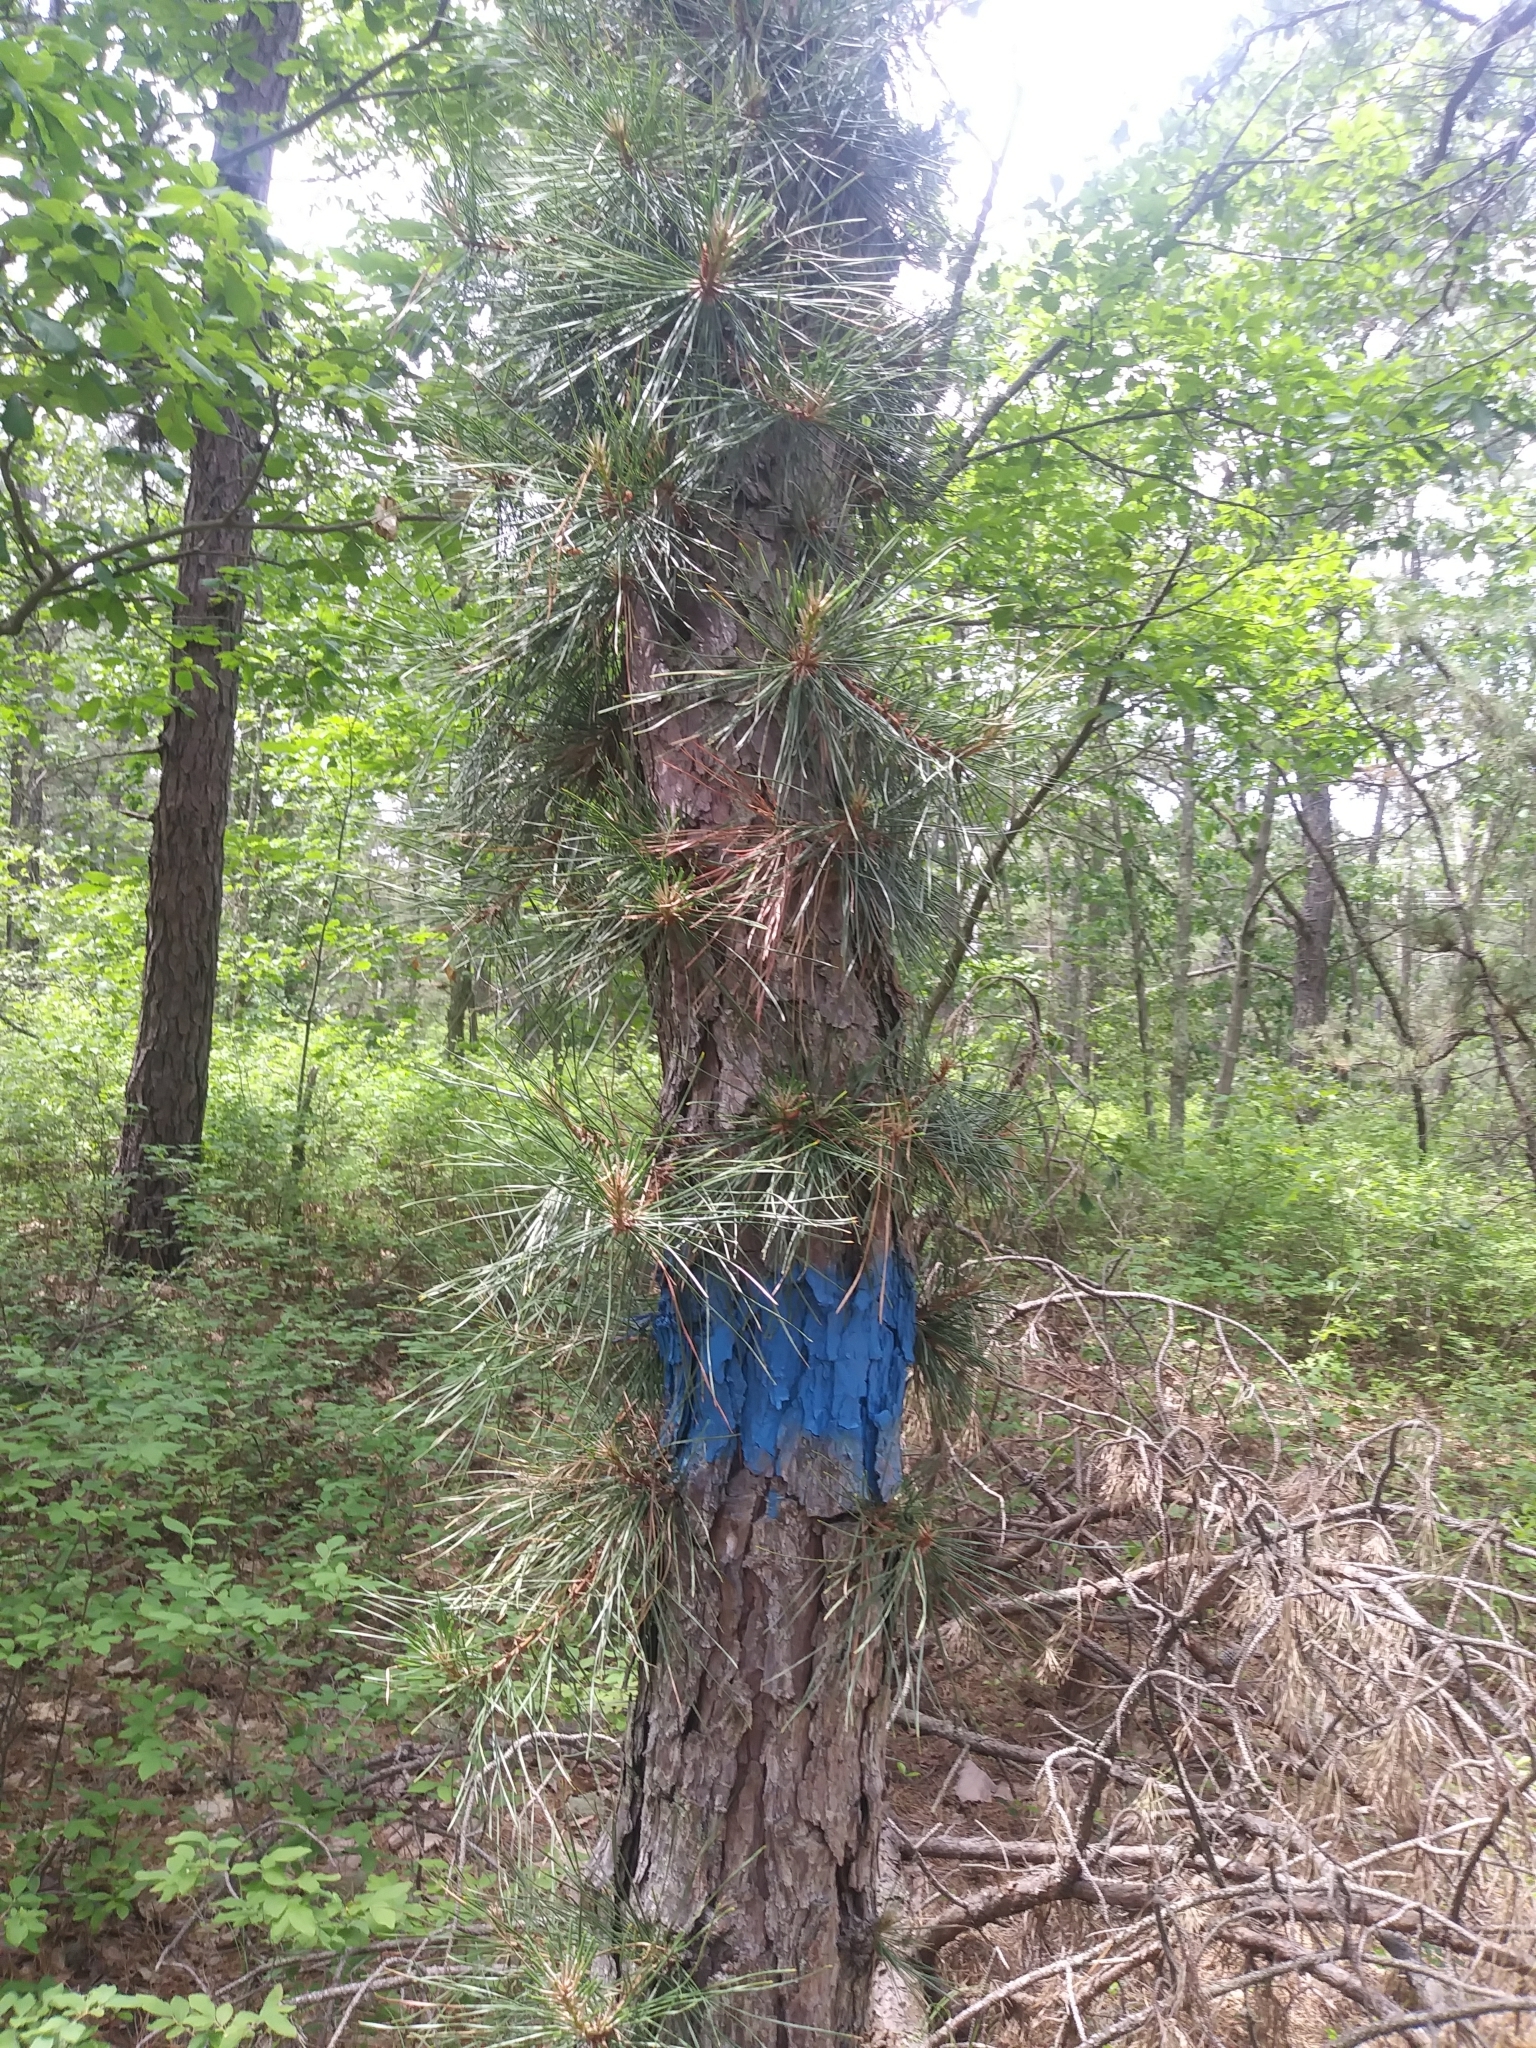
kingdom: Plantae
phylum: Tracheophyta
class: Pinopsida
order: Pinales
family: Pinaceae
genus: Pinus
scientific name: Pinus rigida
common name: Pitch pine
